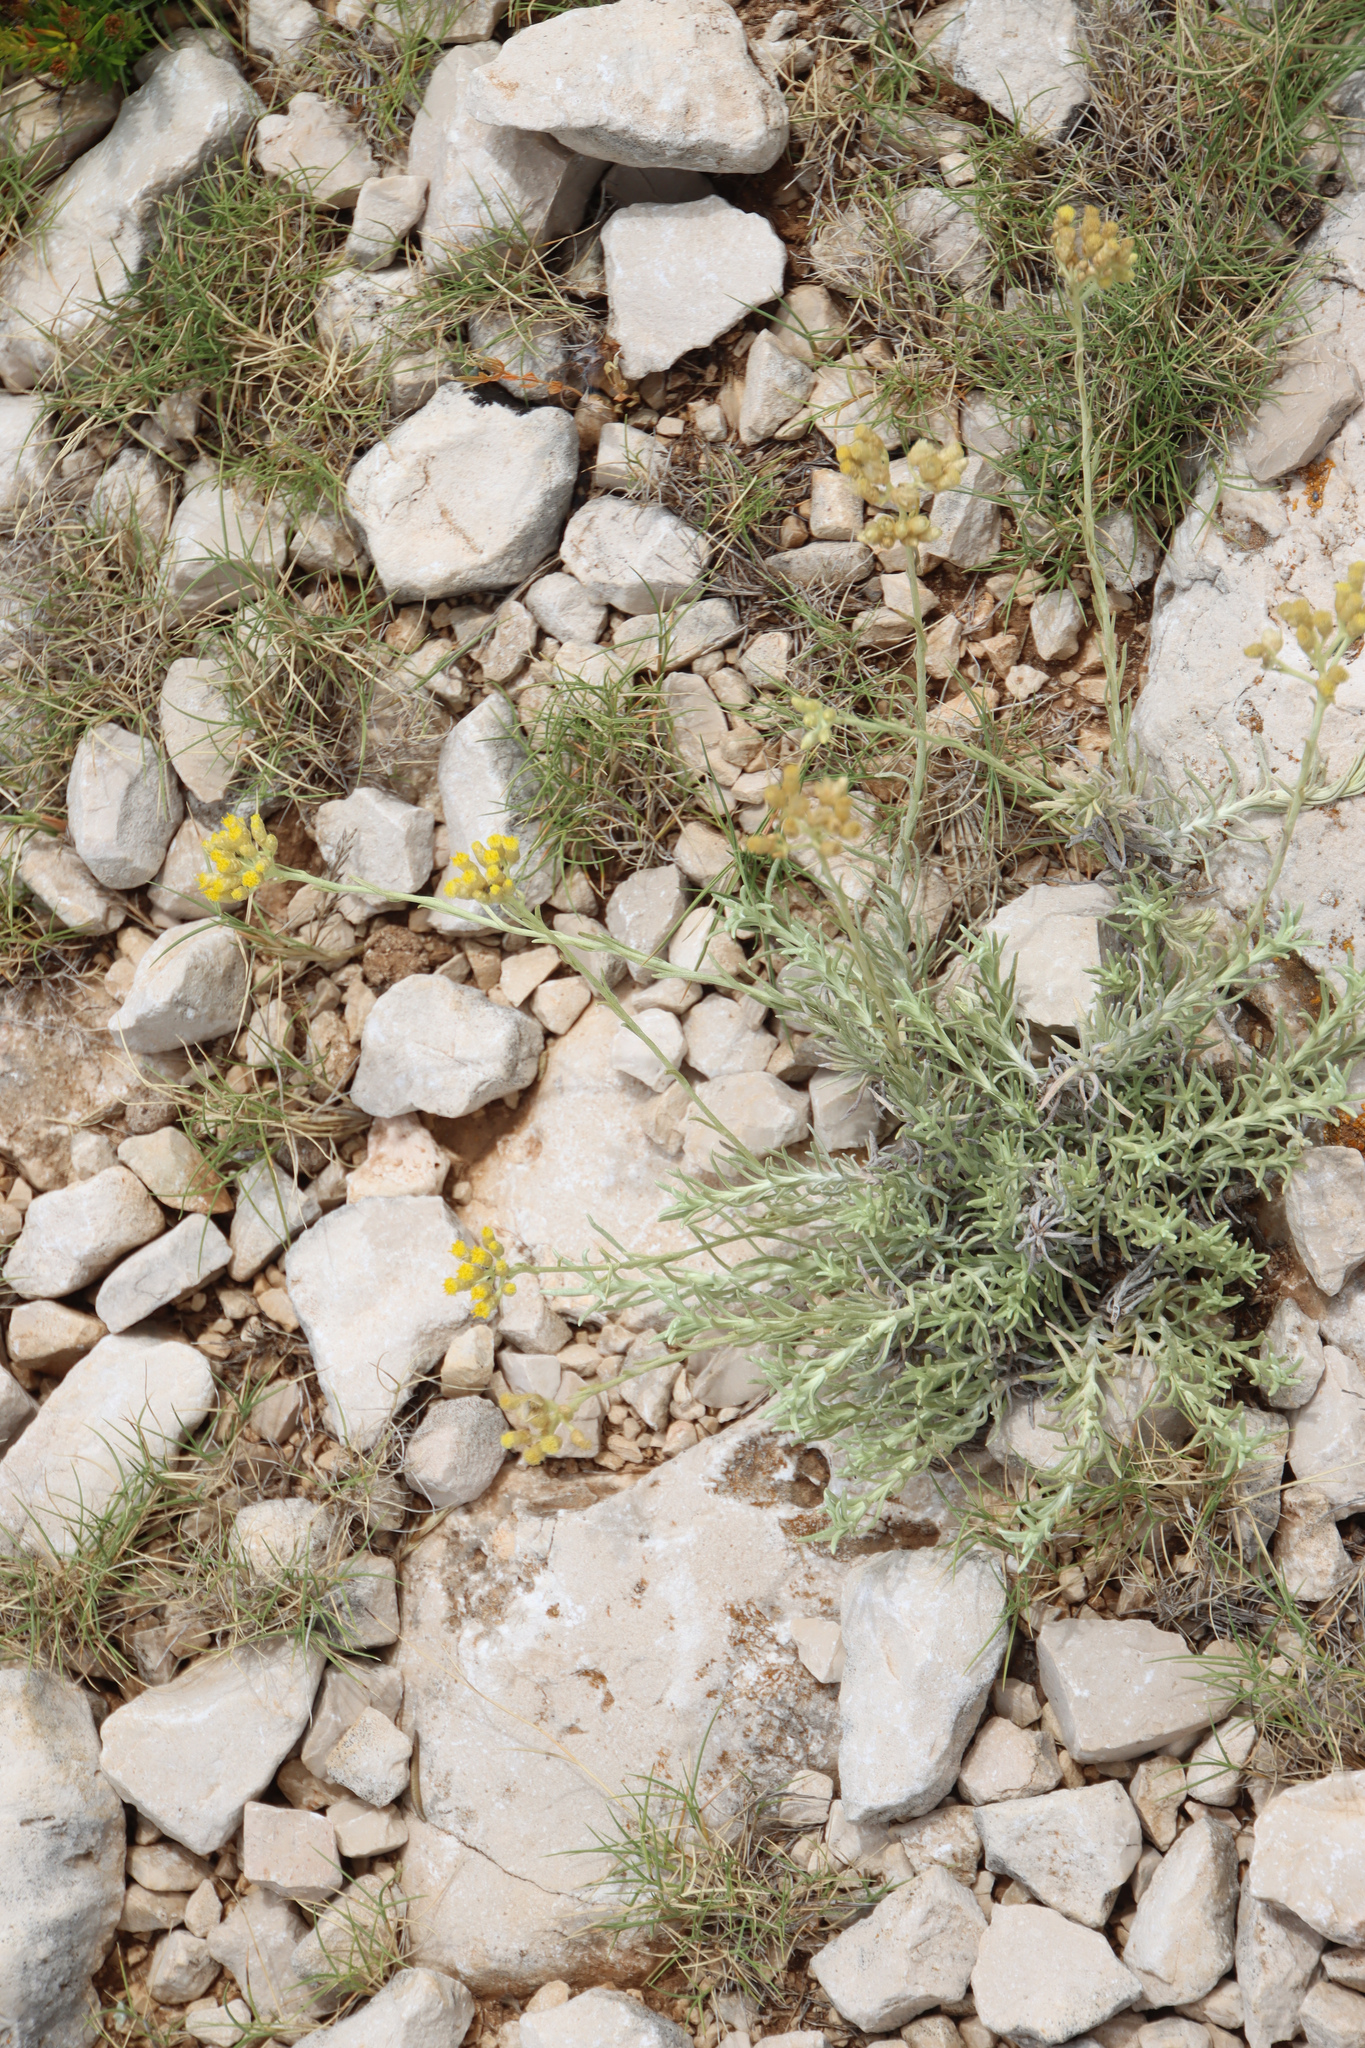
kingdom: Plantae
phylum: Tracheophyta
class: Magnoliopsida
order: Asterales
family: Asteraceae
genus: Helichrysum
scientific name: Helichrysum italicum
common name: Curryplant
